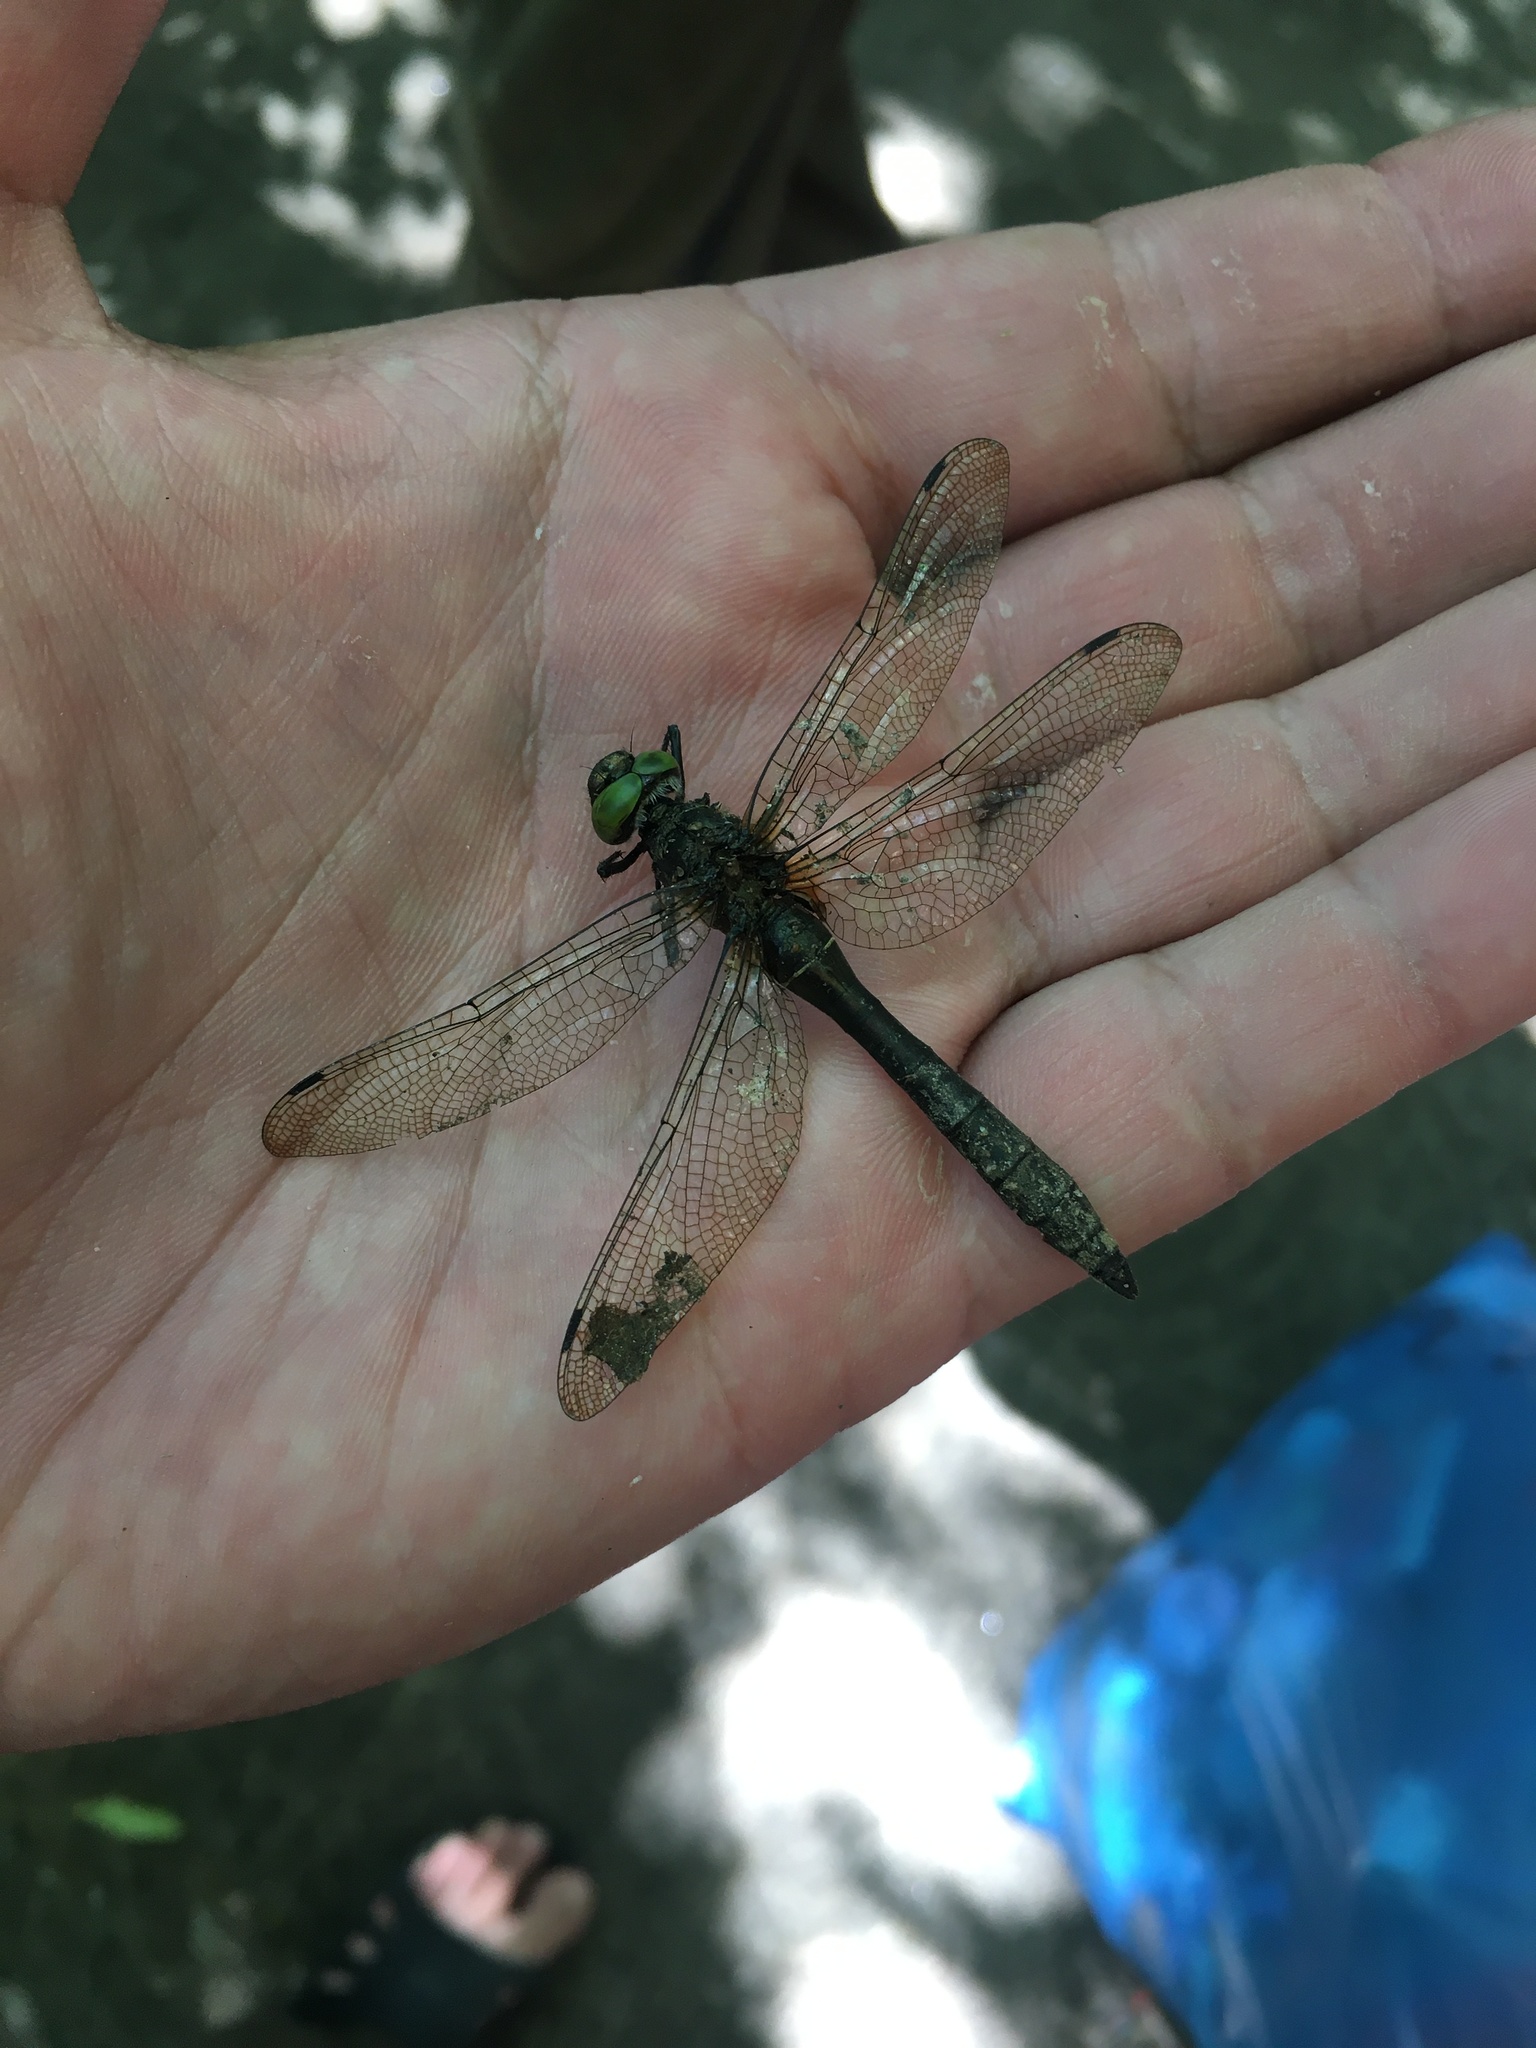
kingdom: Animalia
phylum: Arthropoda
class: Insecta
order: Odonata
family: Corduliidae
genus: Cordulia
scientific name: Cordulia aenea
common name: Downy emerald
